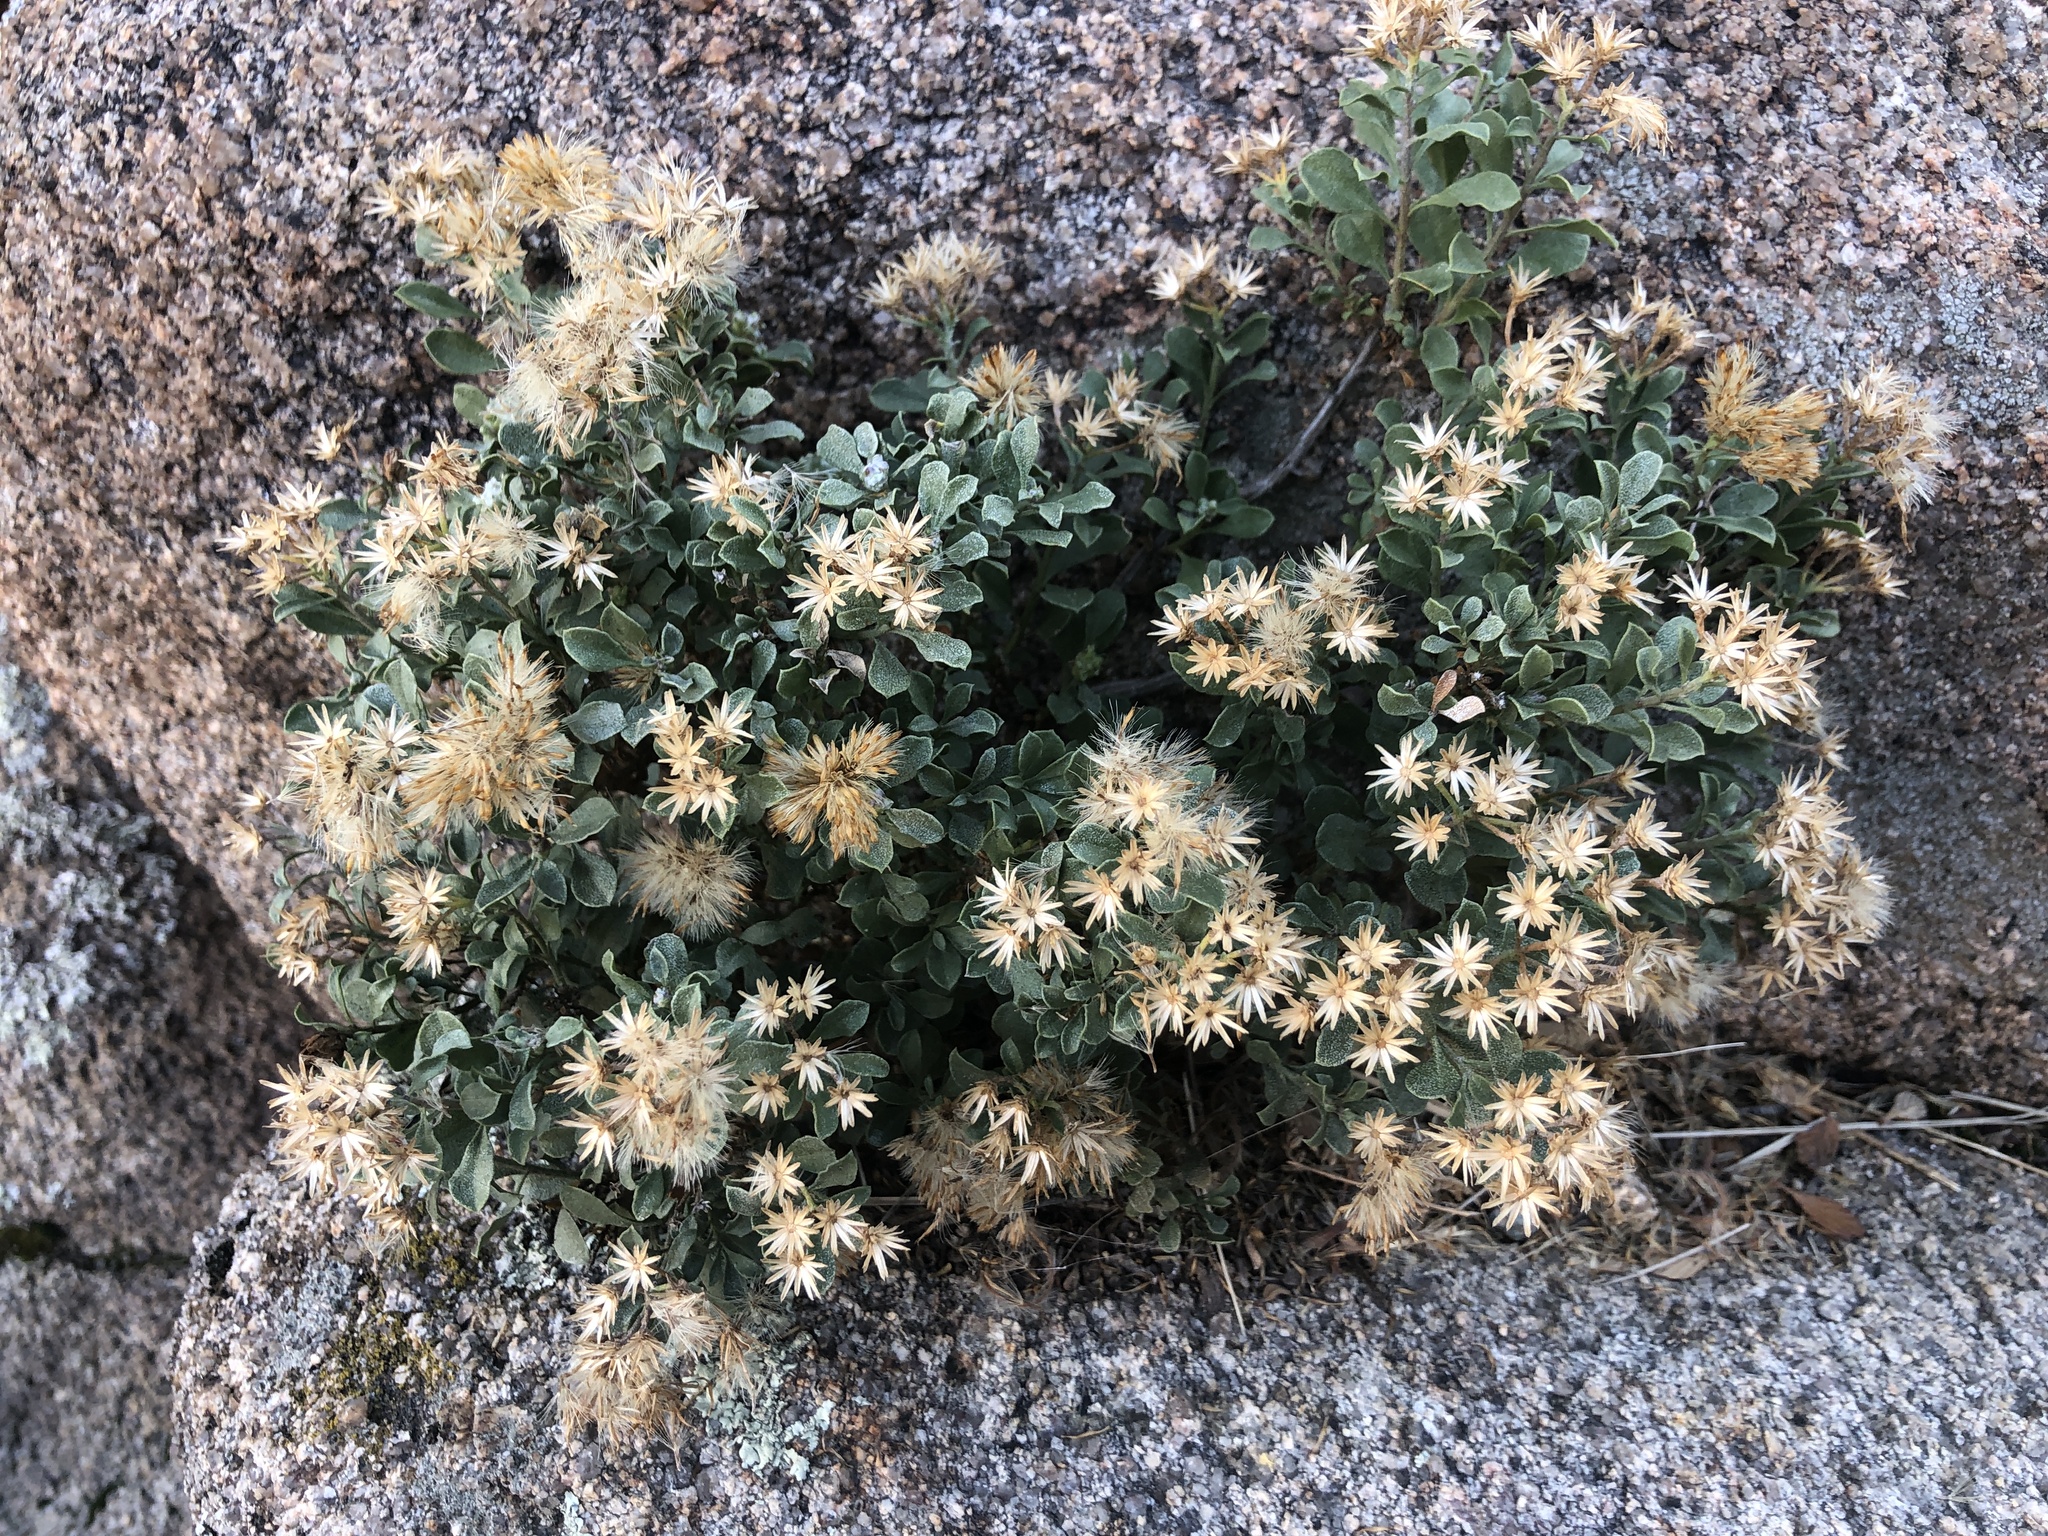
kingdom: Plantae
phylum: Tracheophyta
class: Magnoliopsida
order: Asterales
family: Asteraceae
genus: Ericameria
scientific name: Ericameria cuneata
